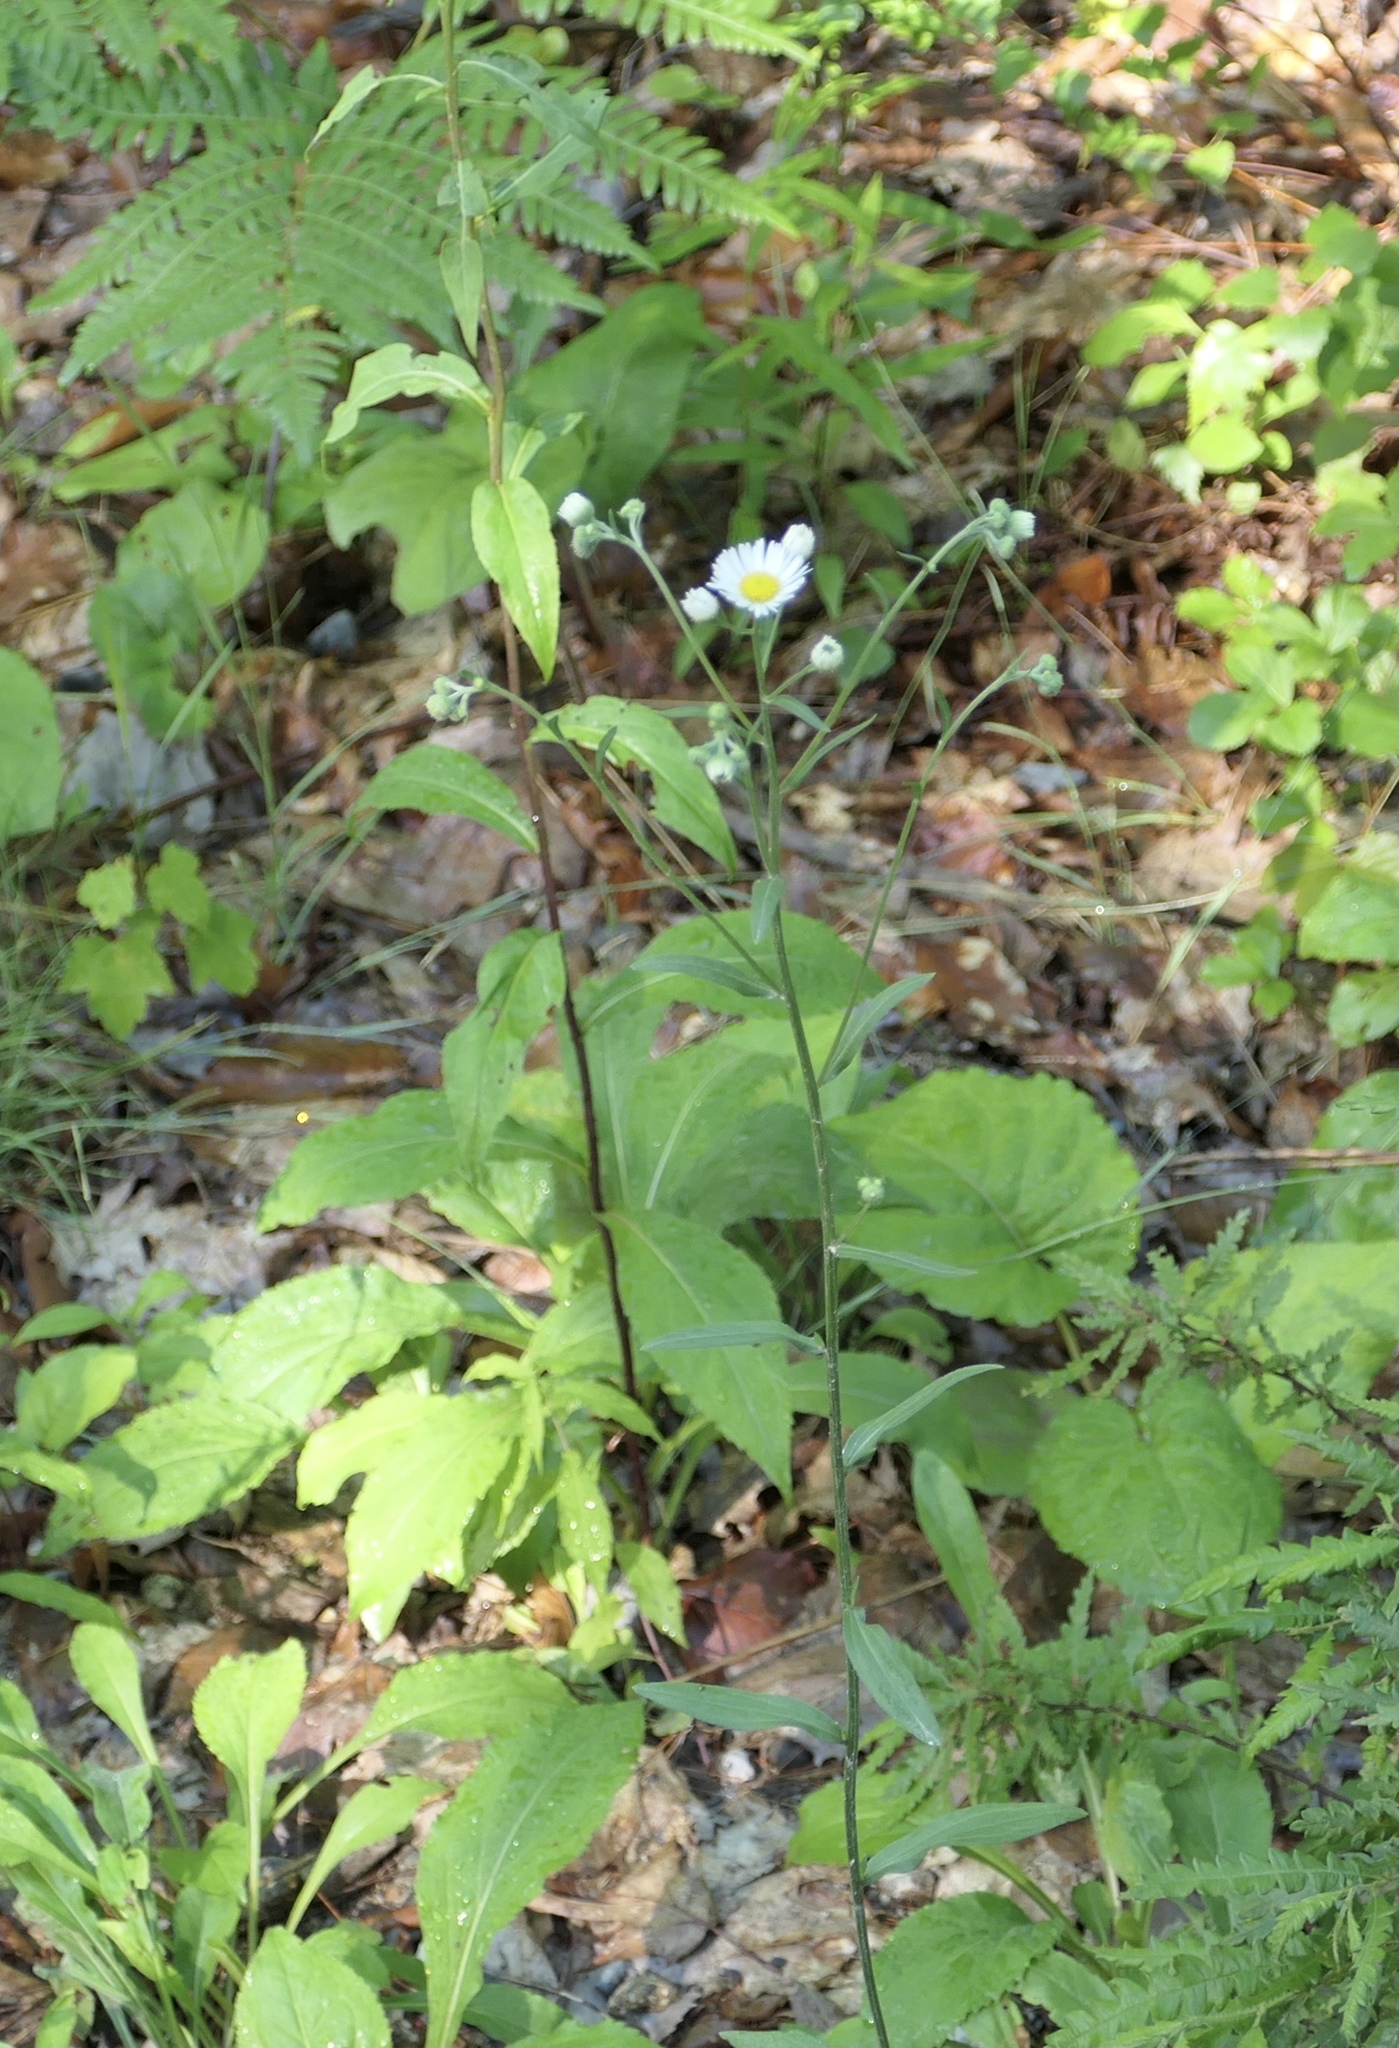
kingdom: Plantae
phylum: Tracheophyta
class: Magnoliopsida
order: Asterales
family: Asteraceae
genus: Erigeron
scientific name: Erigeron strigosus
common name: Common eastern fleabane
